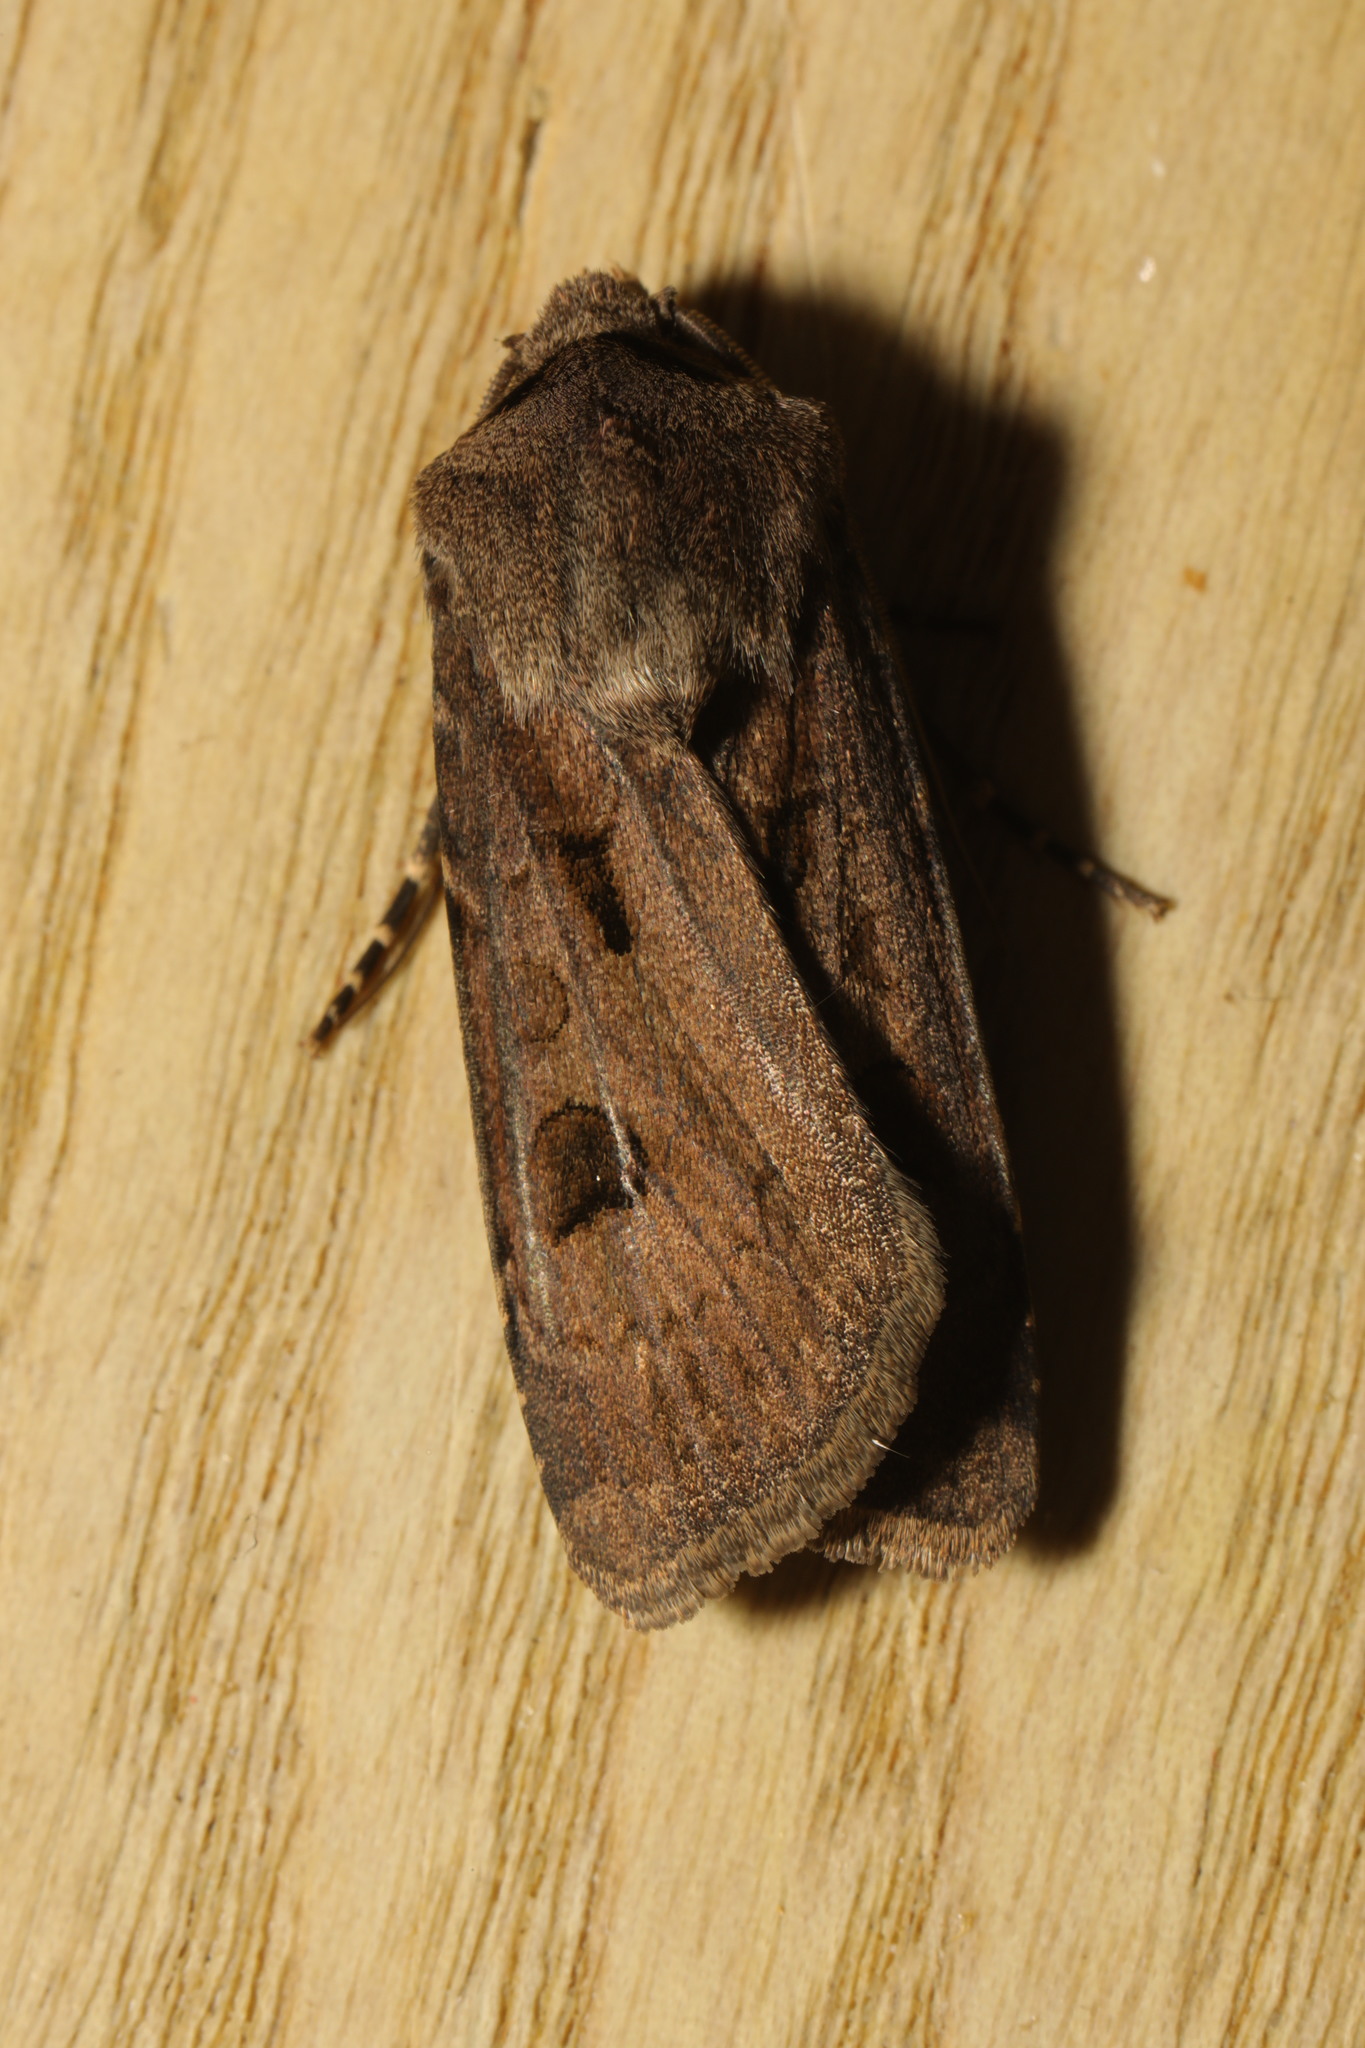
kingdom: Animalia
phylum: Arthropoda
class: Insecta
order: Lepidoptera
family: Noctuidae
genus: Agrotis
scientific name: Agrotis exclamationis
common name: Heart and dart
